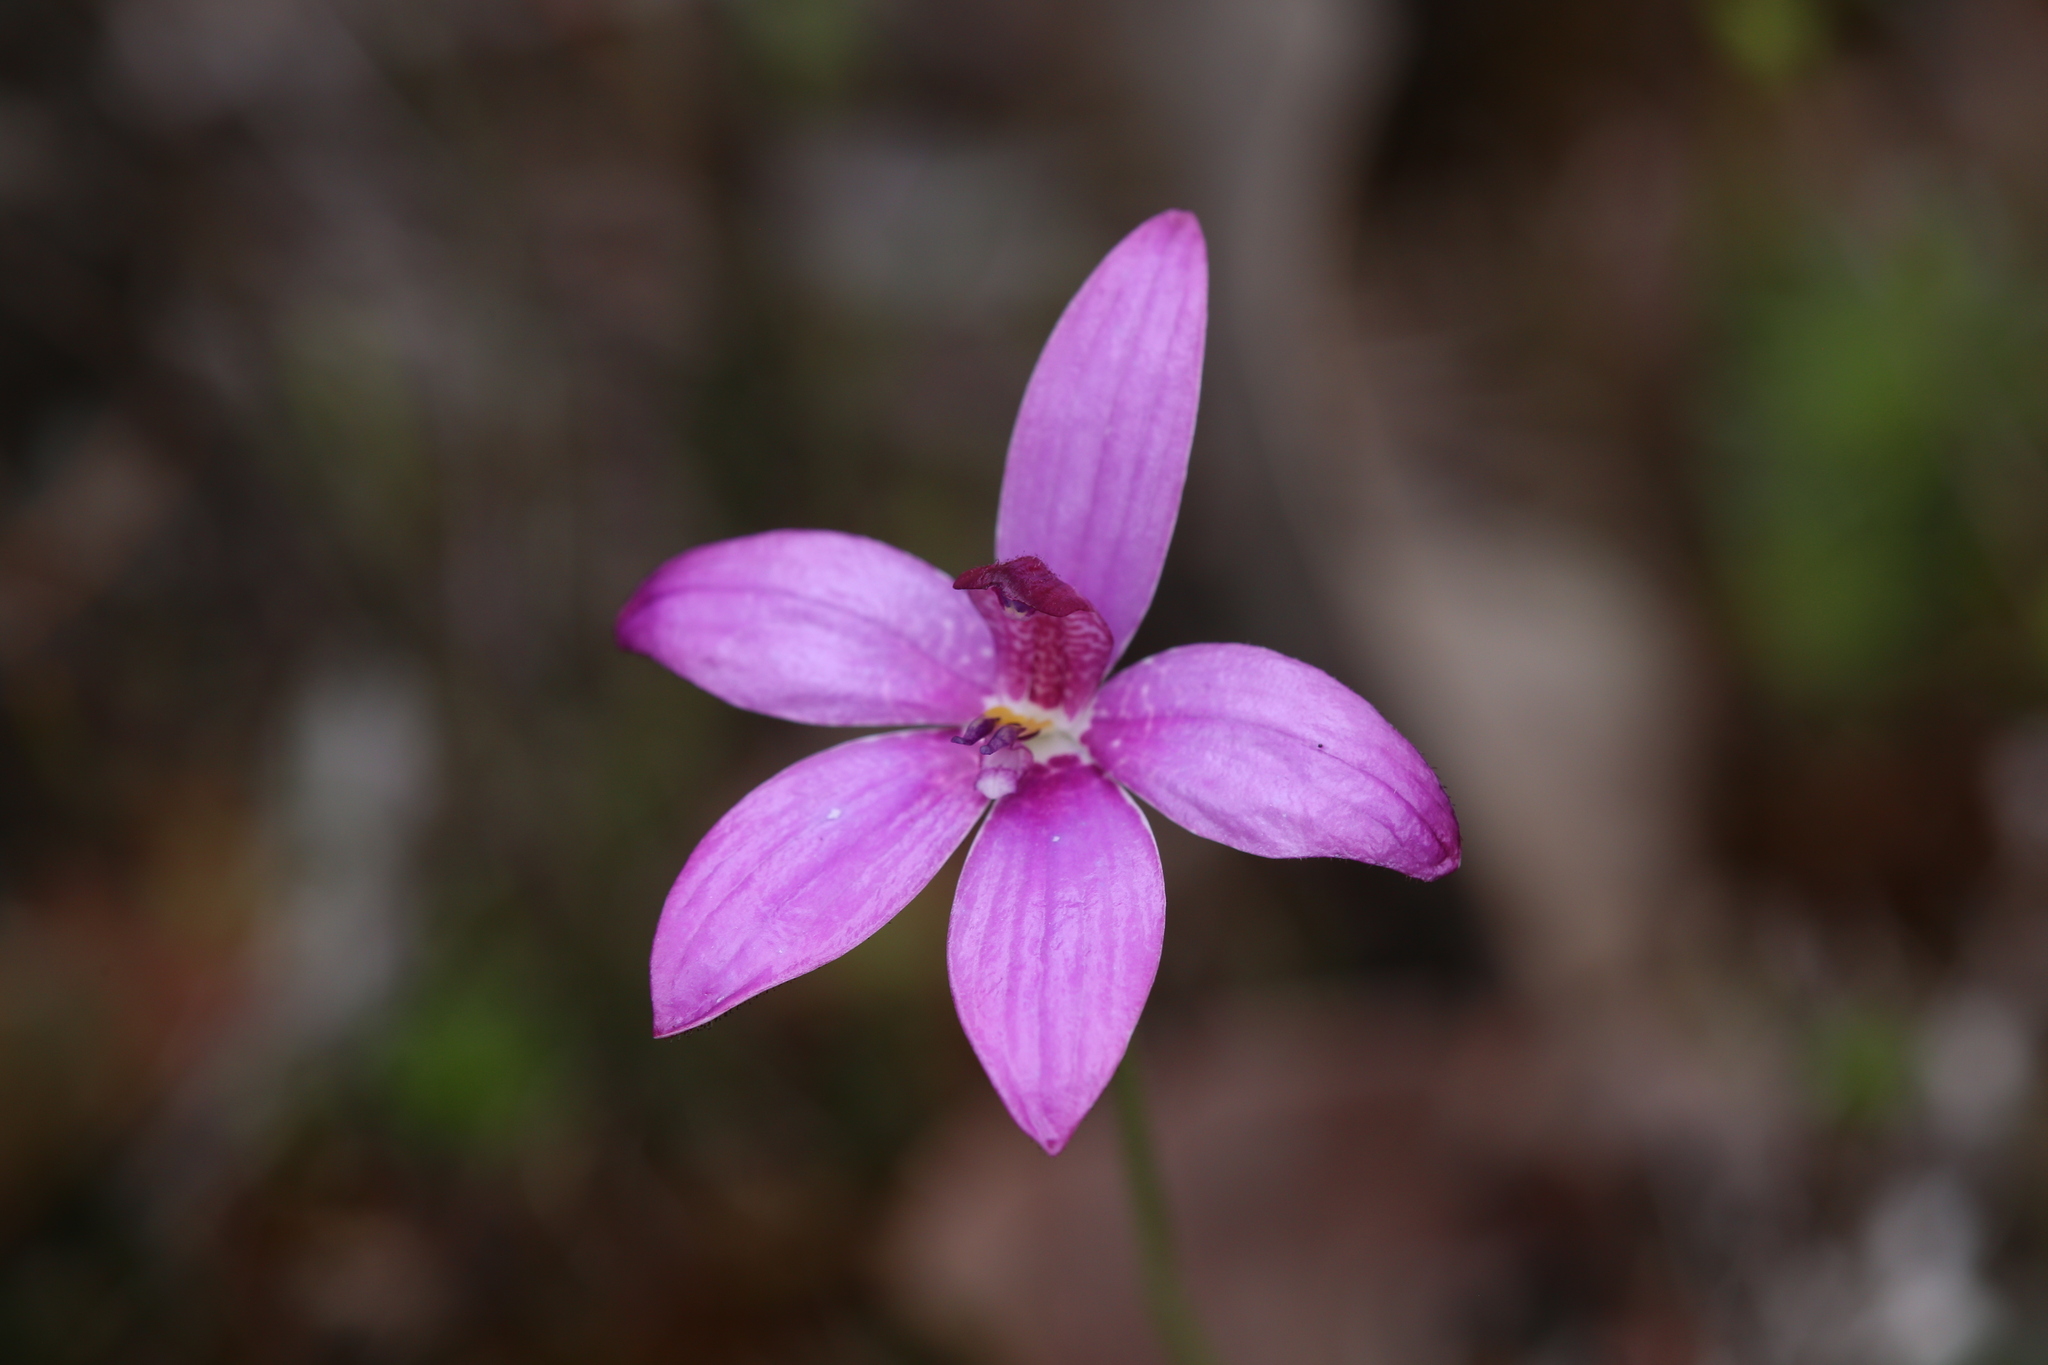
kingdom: Plantae
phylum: Tracheophyta
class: Liliopsida
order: Asparagales
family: Orchidaceae
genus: Caladenia
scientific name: Caladenia emarginata
